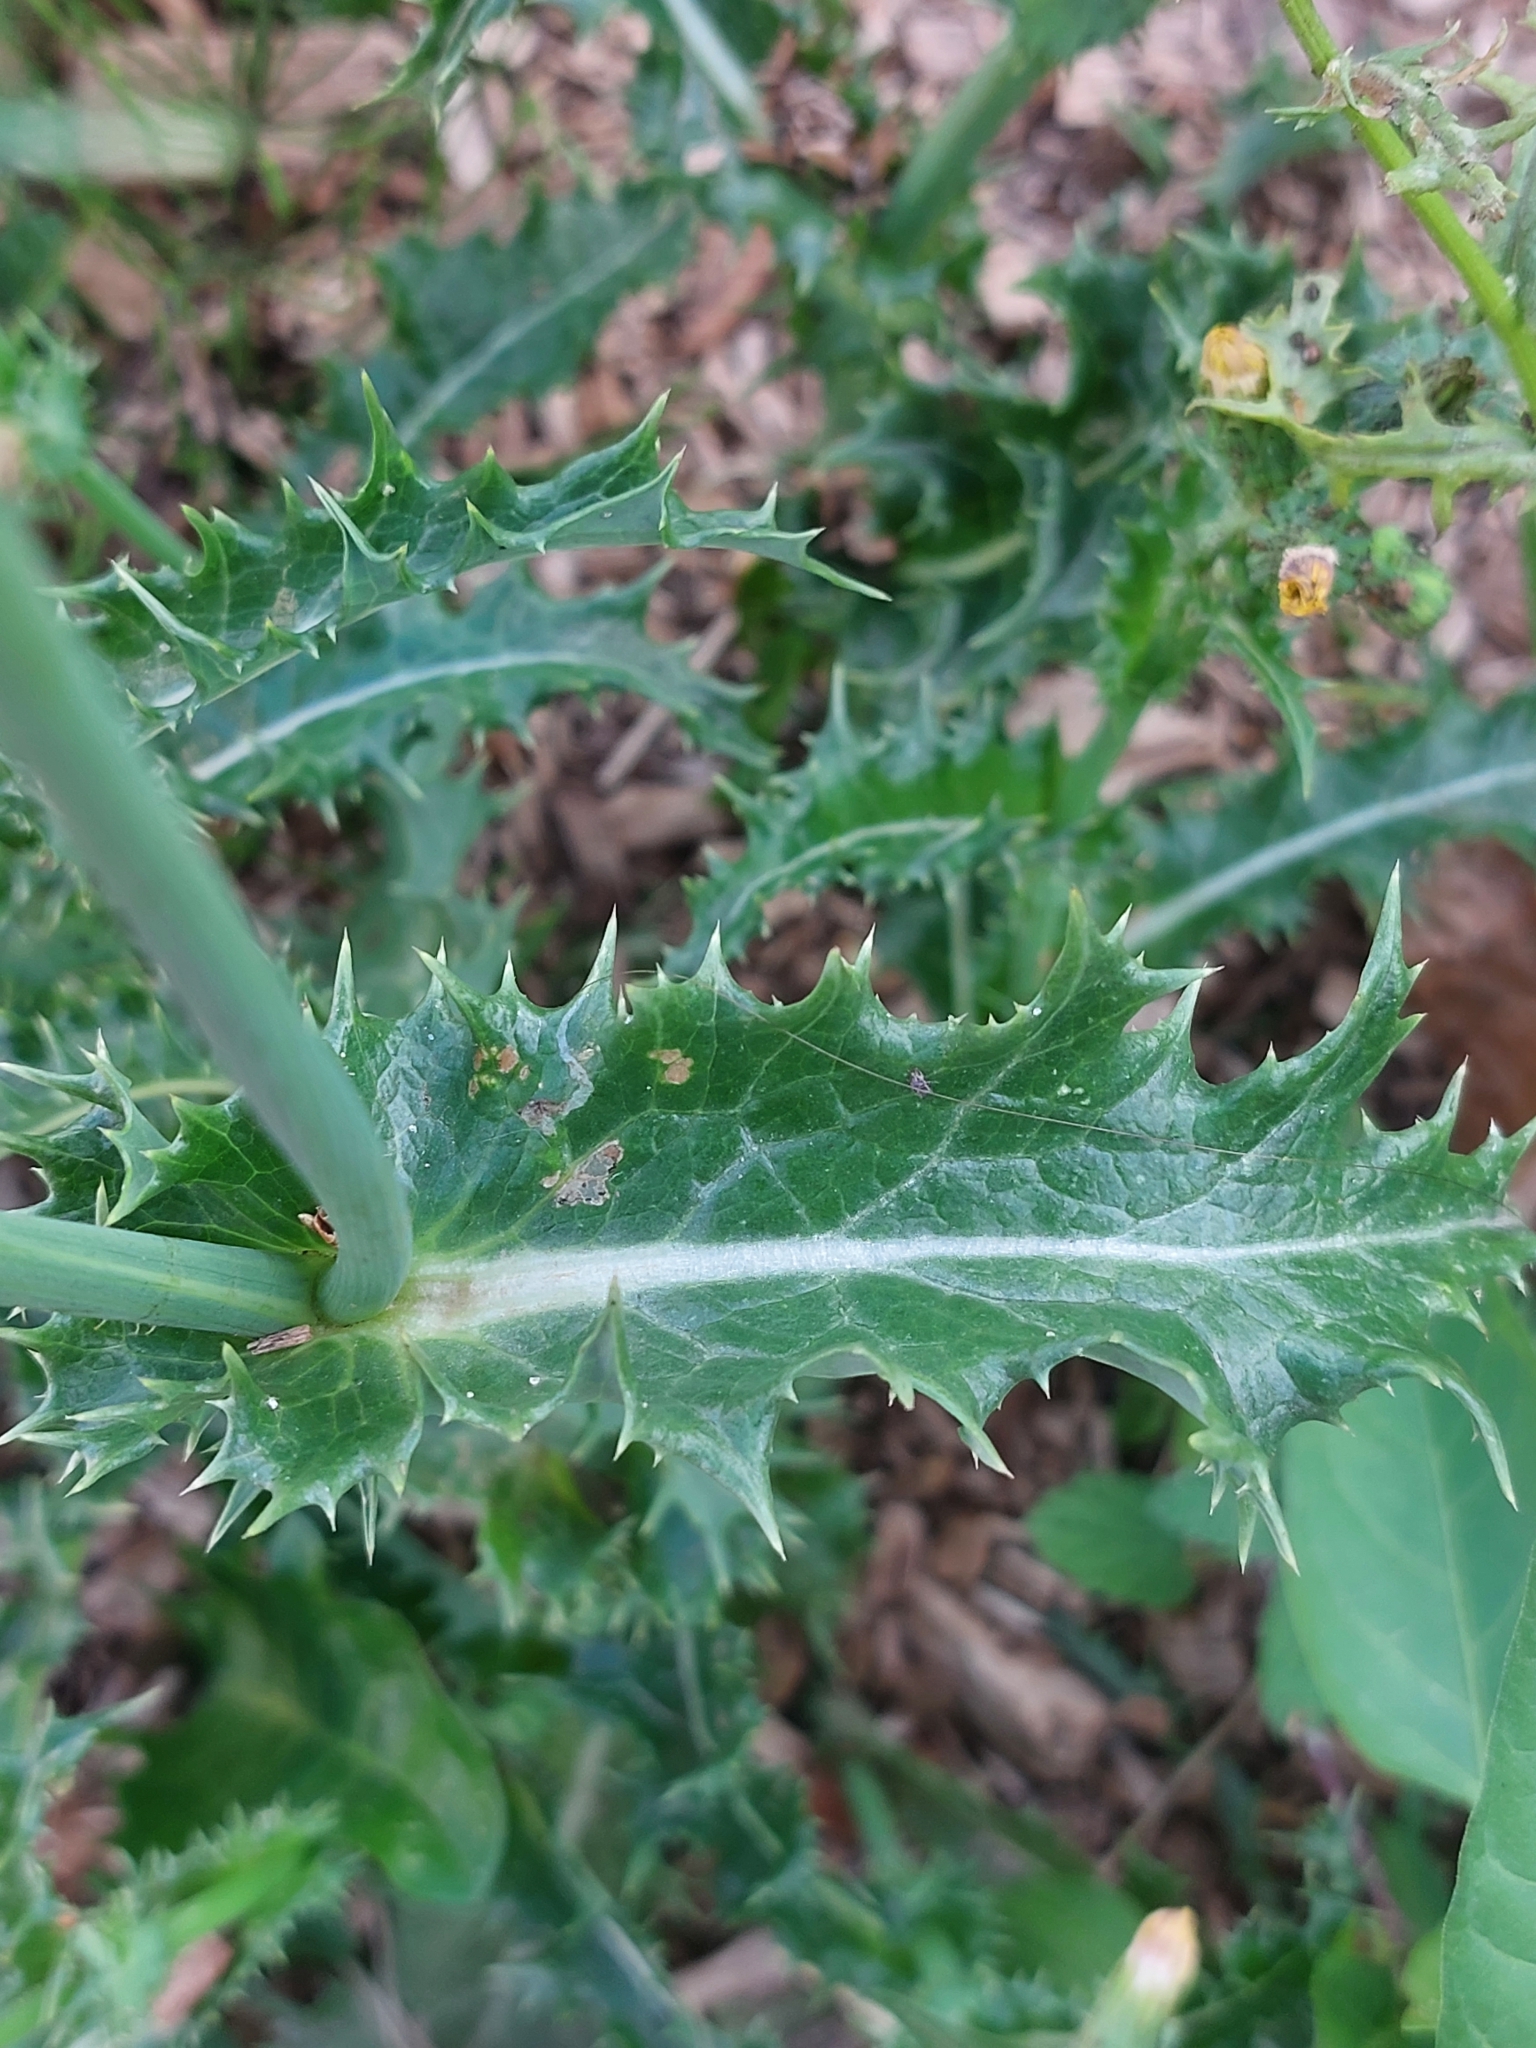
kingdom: Plantae
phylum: Tracheophyta
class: Magnoliopsida
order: Asterales
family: Asteraceae
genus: Sonchus
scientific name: Sonchus asper
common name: Prickly sow-thistle
